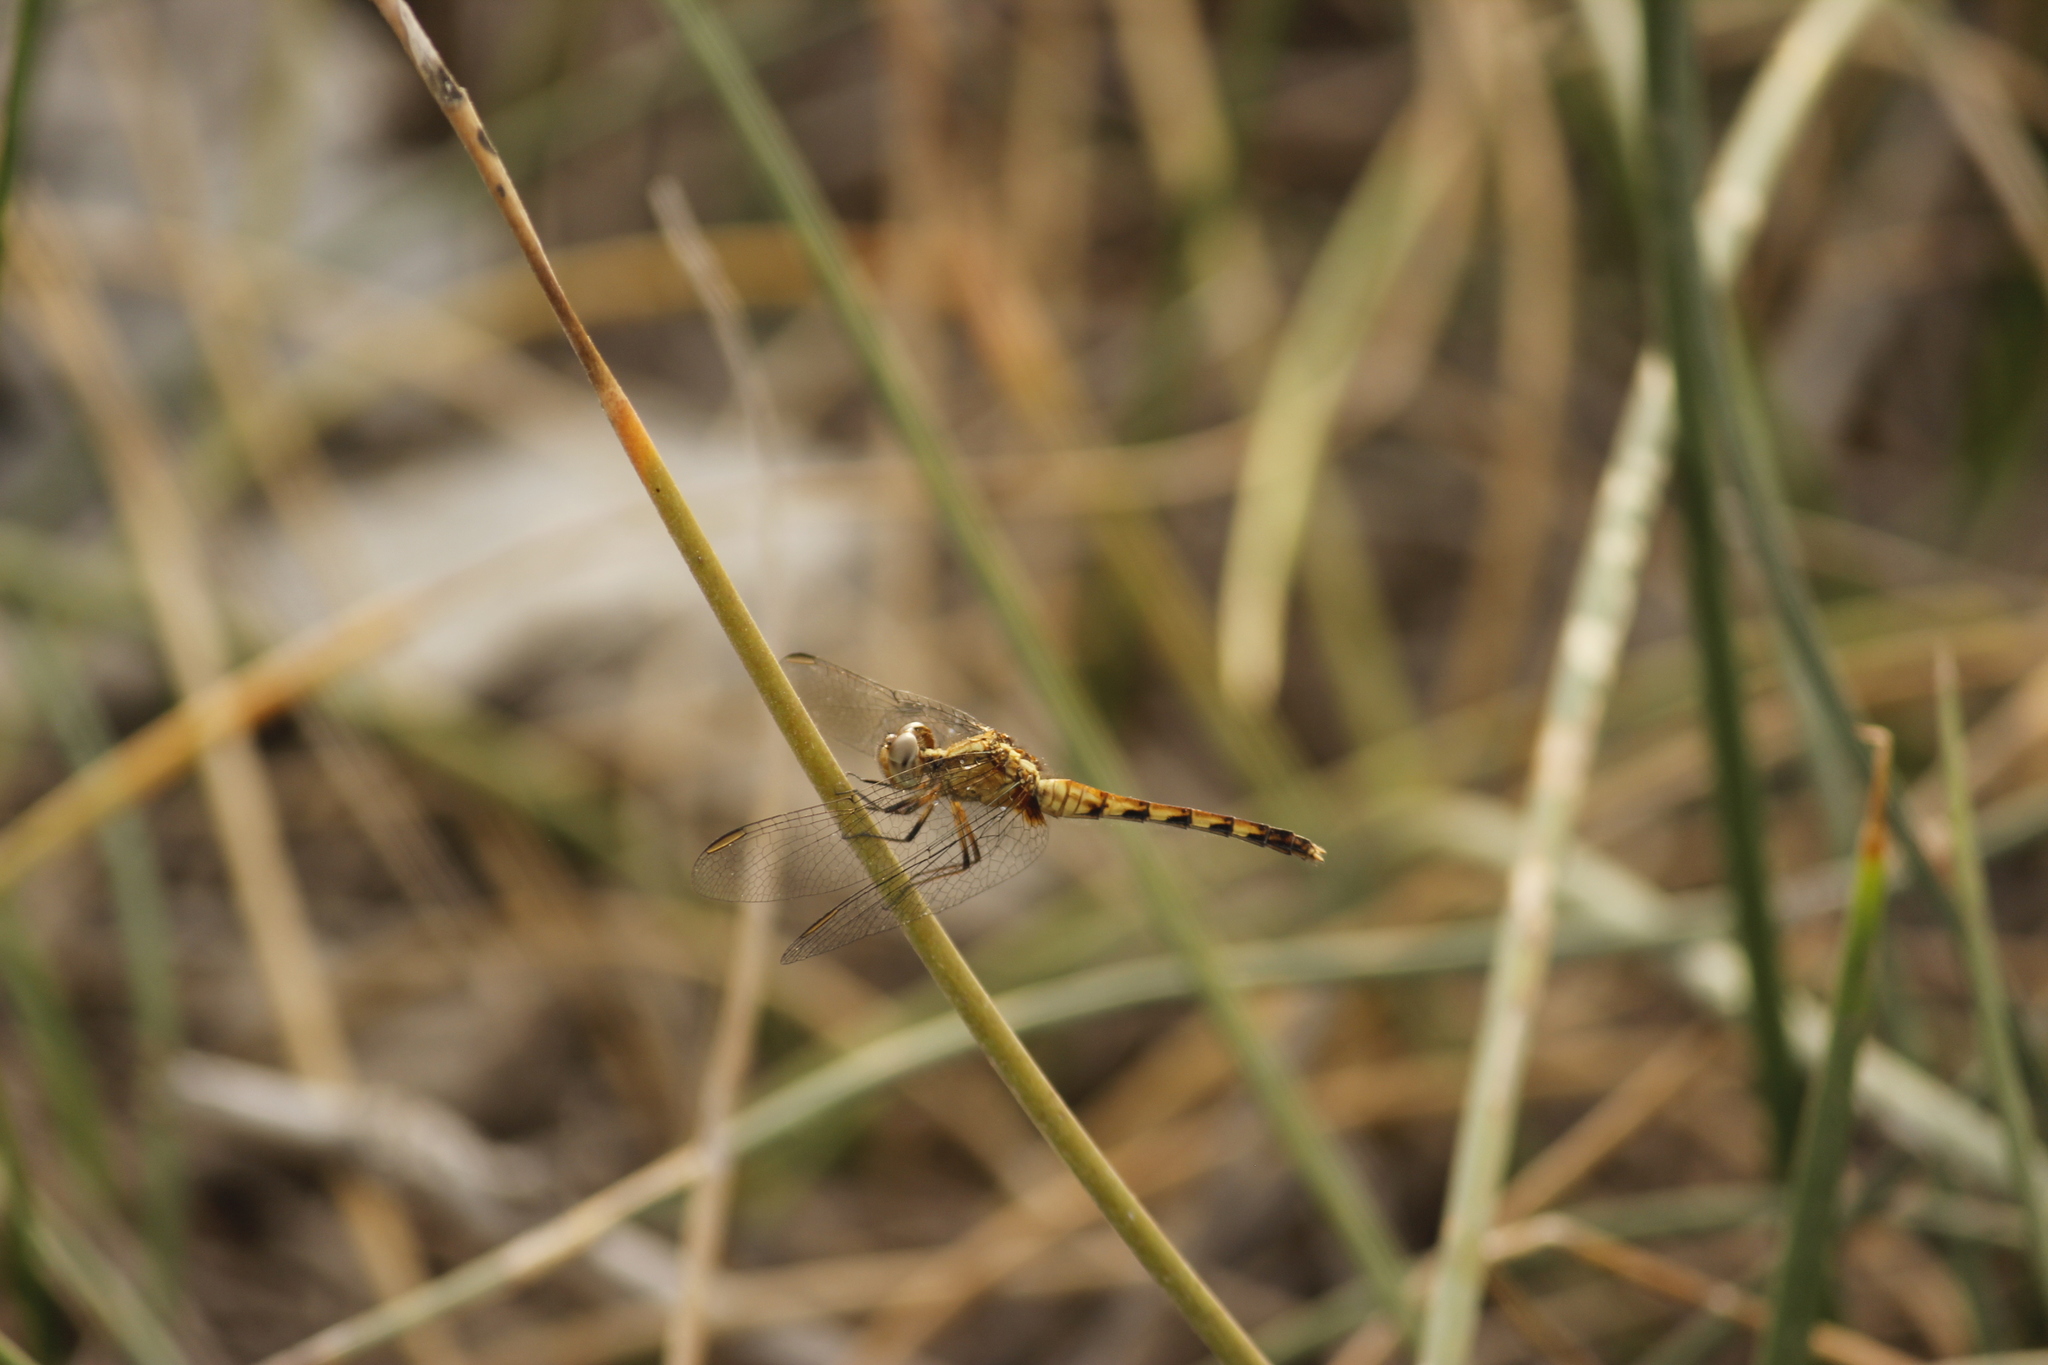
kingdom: Animalia
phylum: Arthropoda
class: Insecta
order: Odonata
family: Libellulidae
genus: Erythrodiplax
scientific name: Erythrodiplax cleopatra
